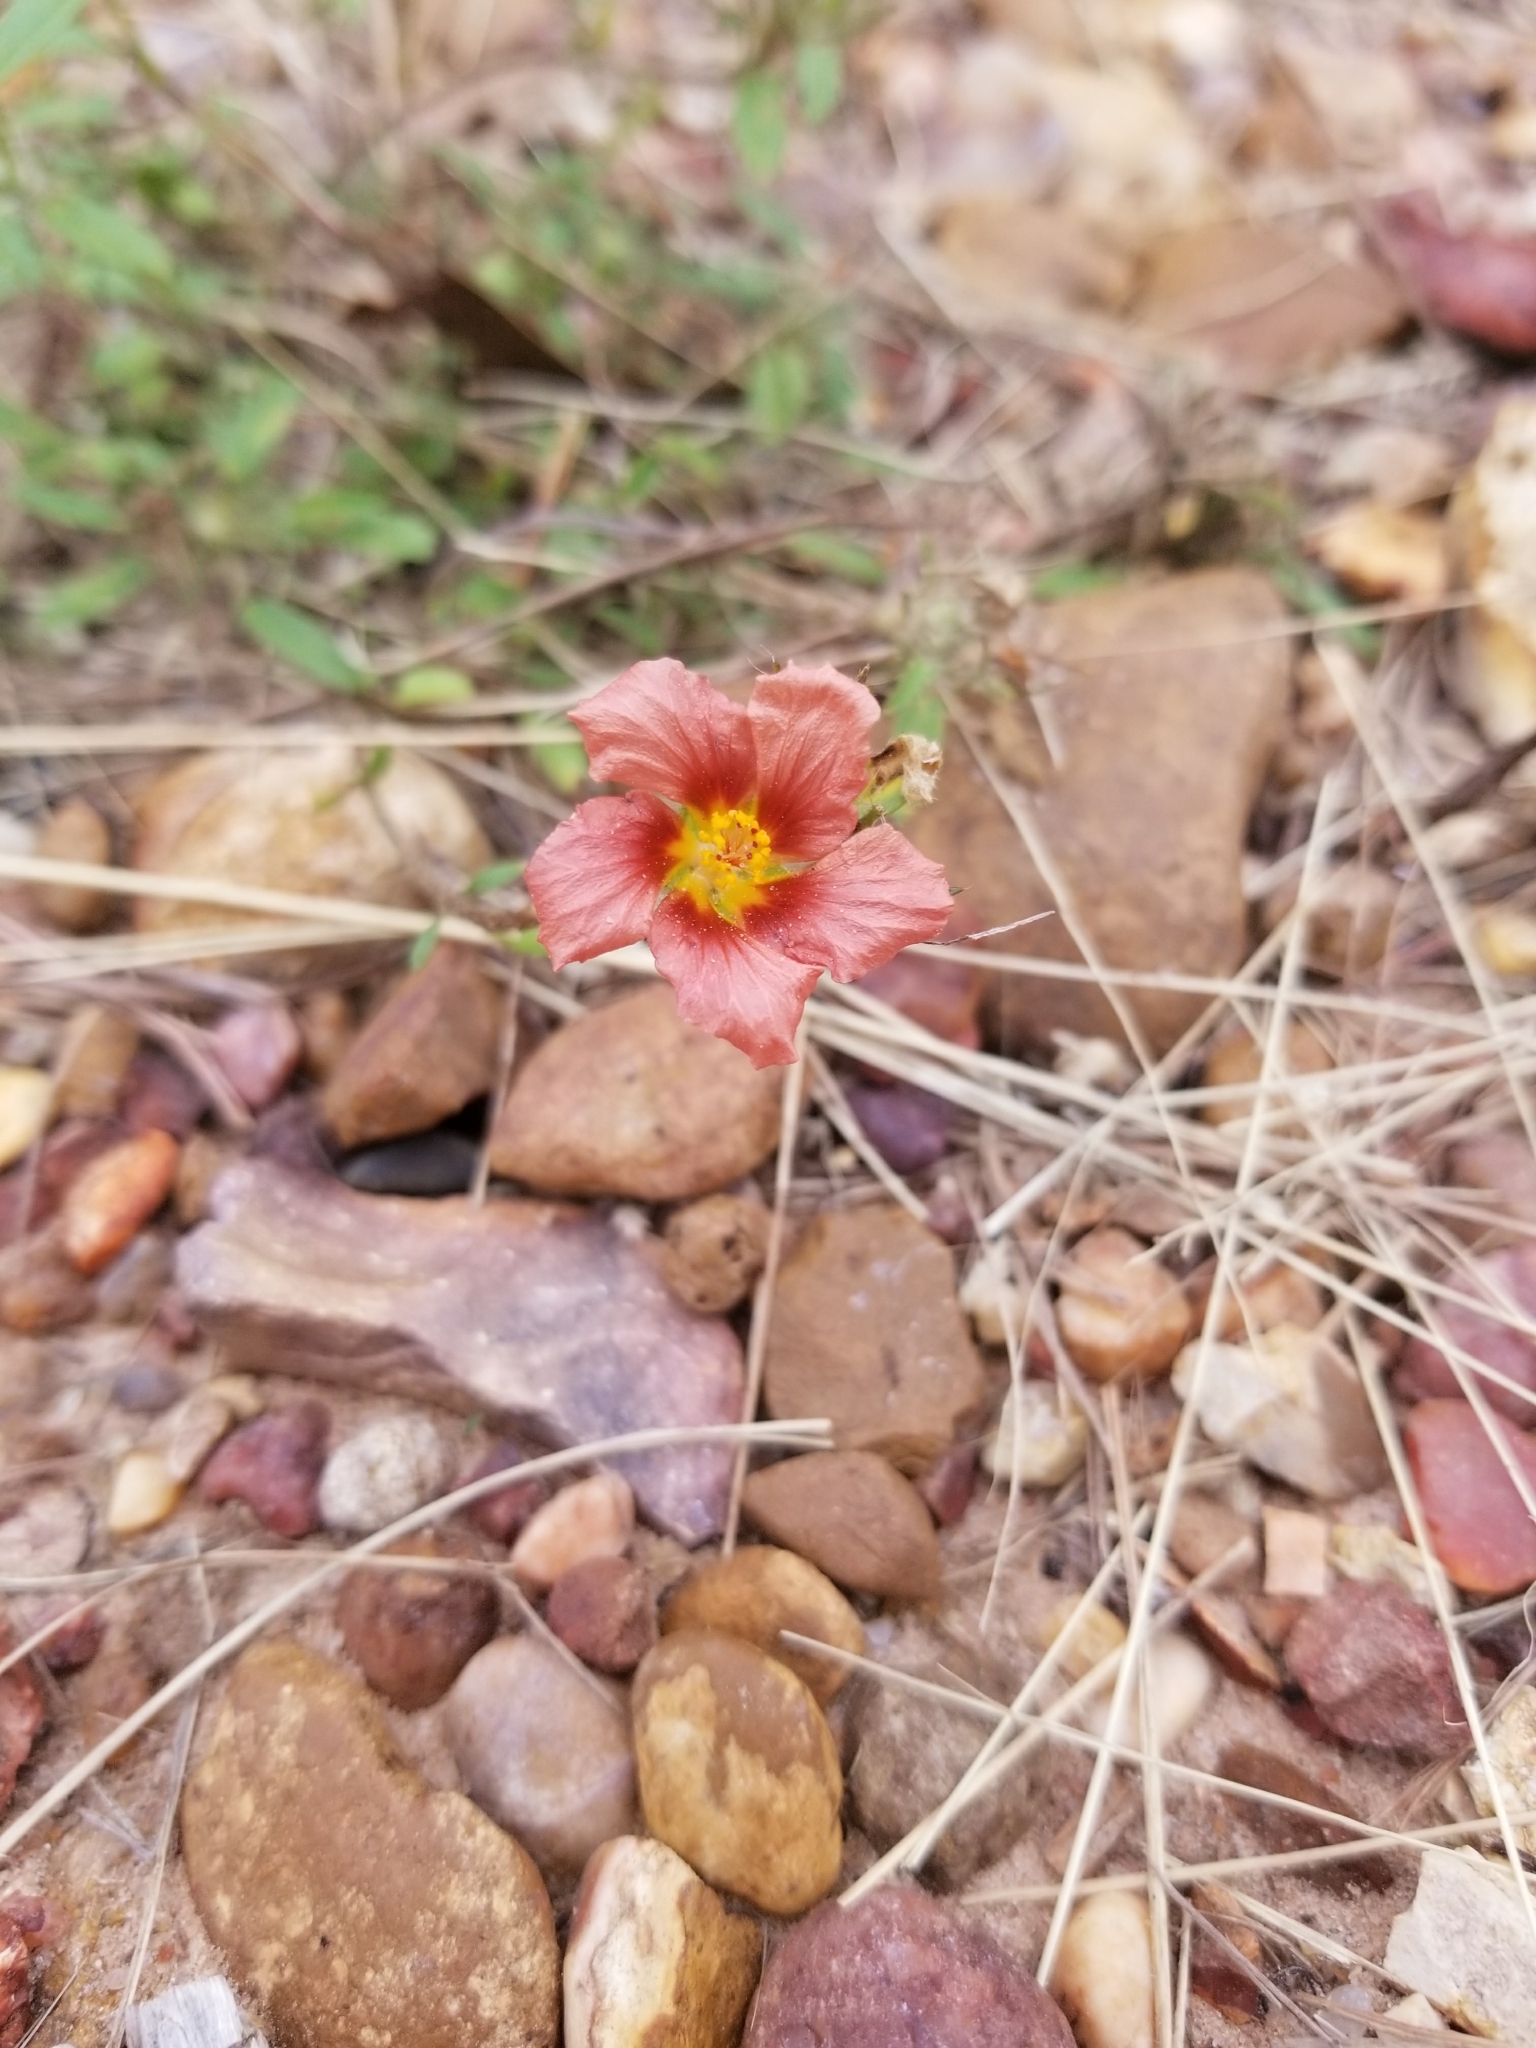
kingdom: Plantae
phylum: Tracheophyta
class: Magnoliopsida
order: Malvales
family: Malvaceae
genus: Sida
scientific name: Sida ciliaris
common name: Bracted fanpetals
